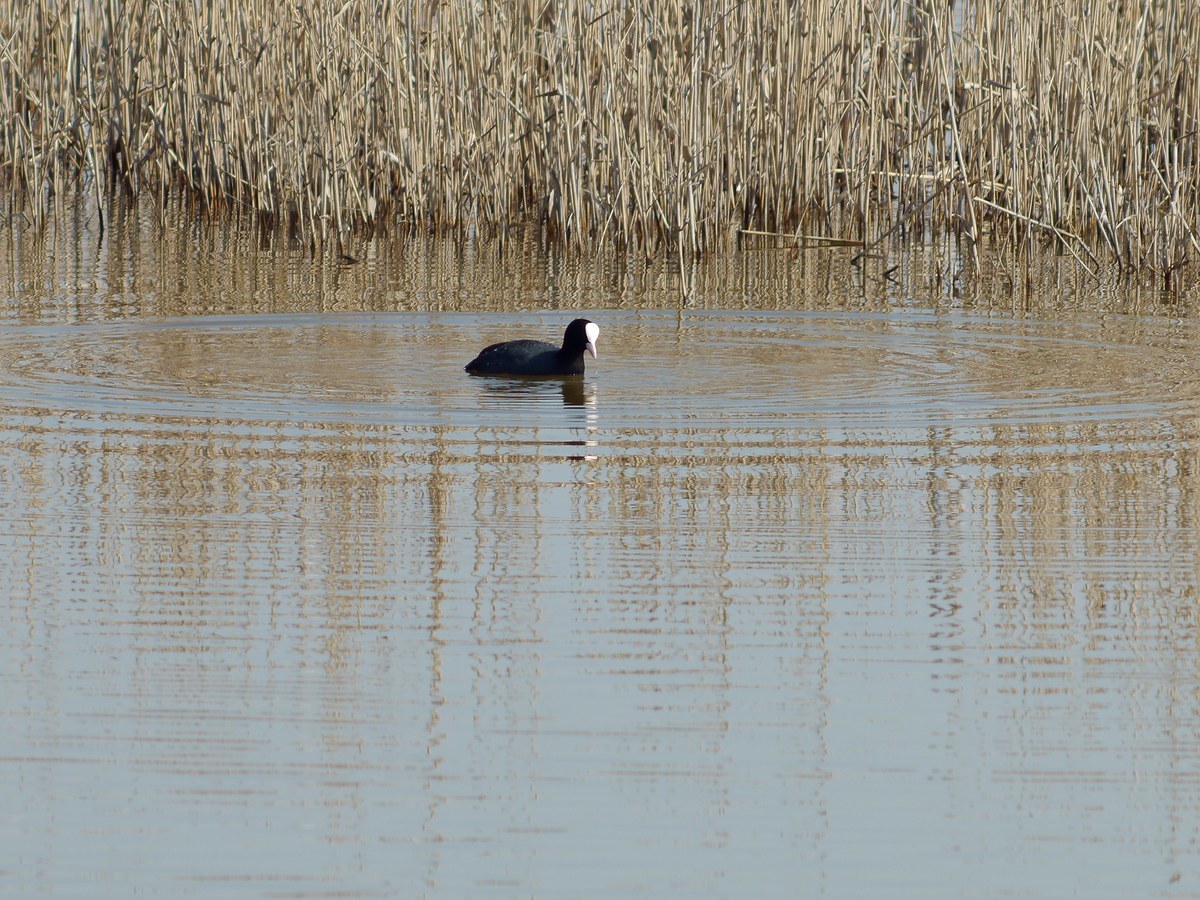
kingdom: Animalia
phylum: Chordata
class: Aves
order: Gruiformes
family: Rallidae
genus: Fulica
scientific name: Fulica atra
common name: Eurasian coot
